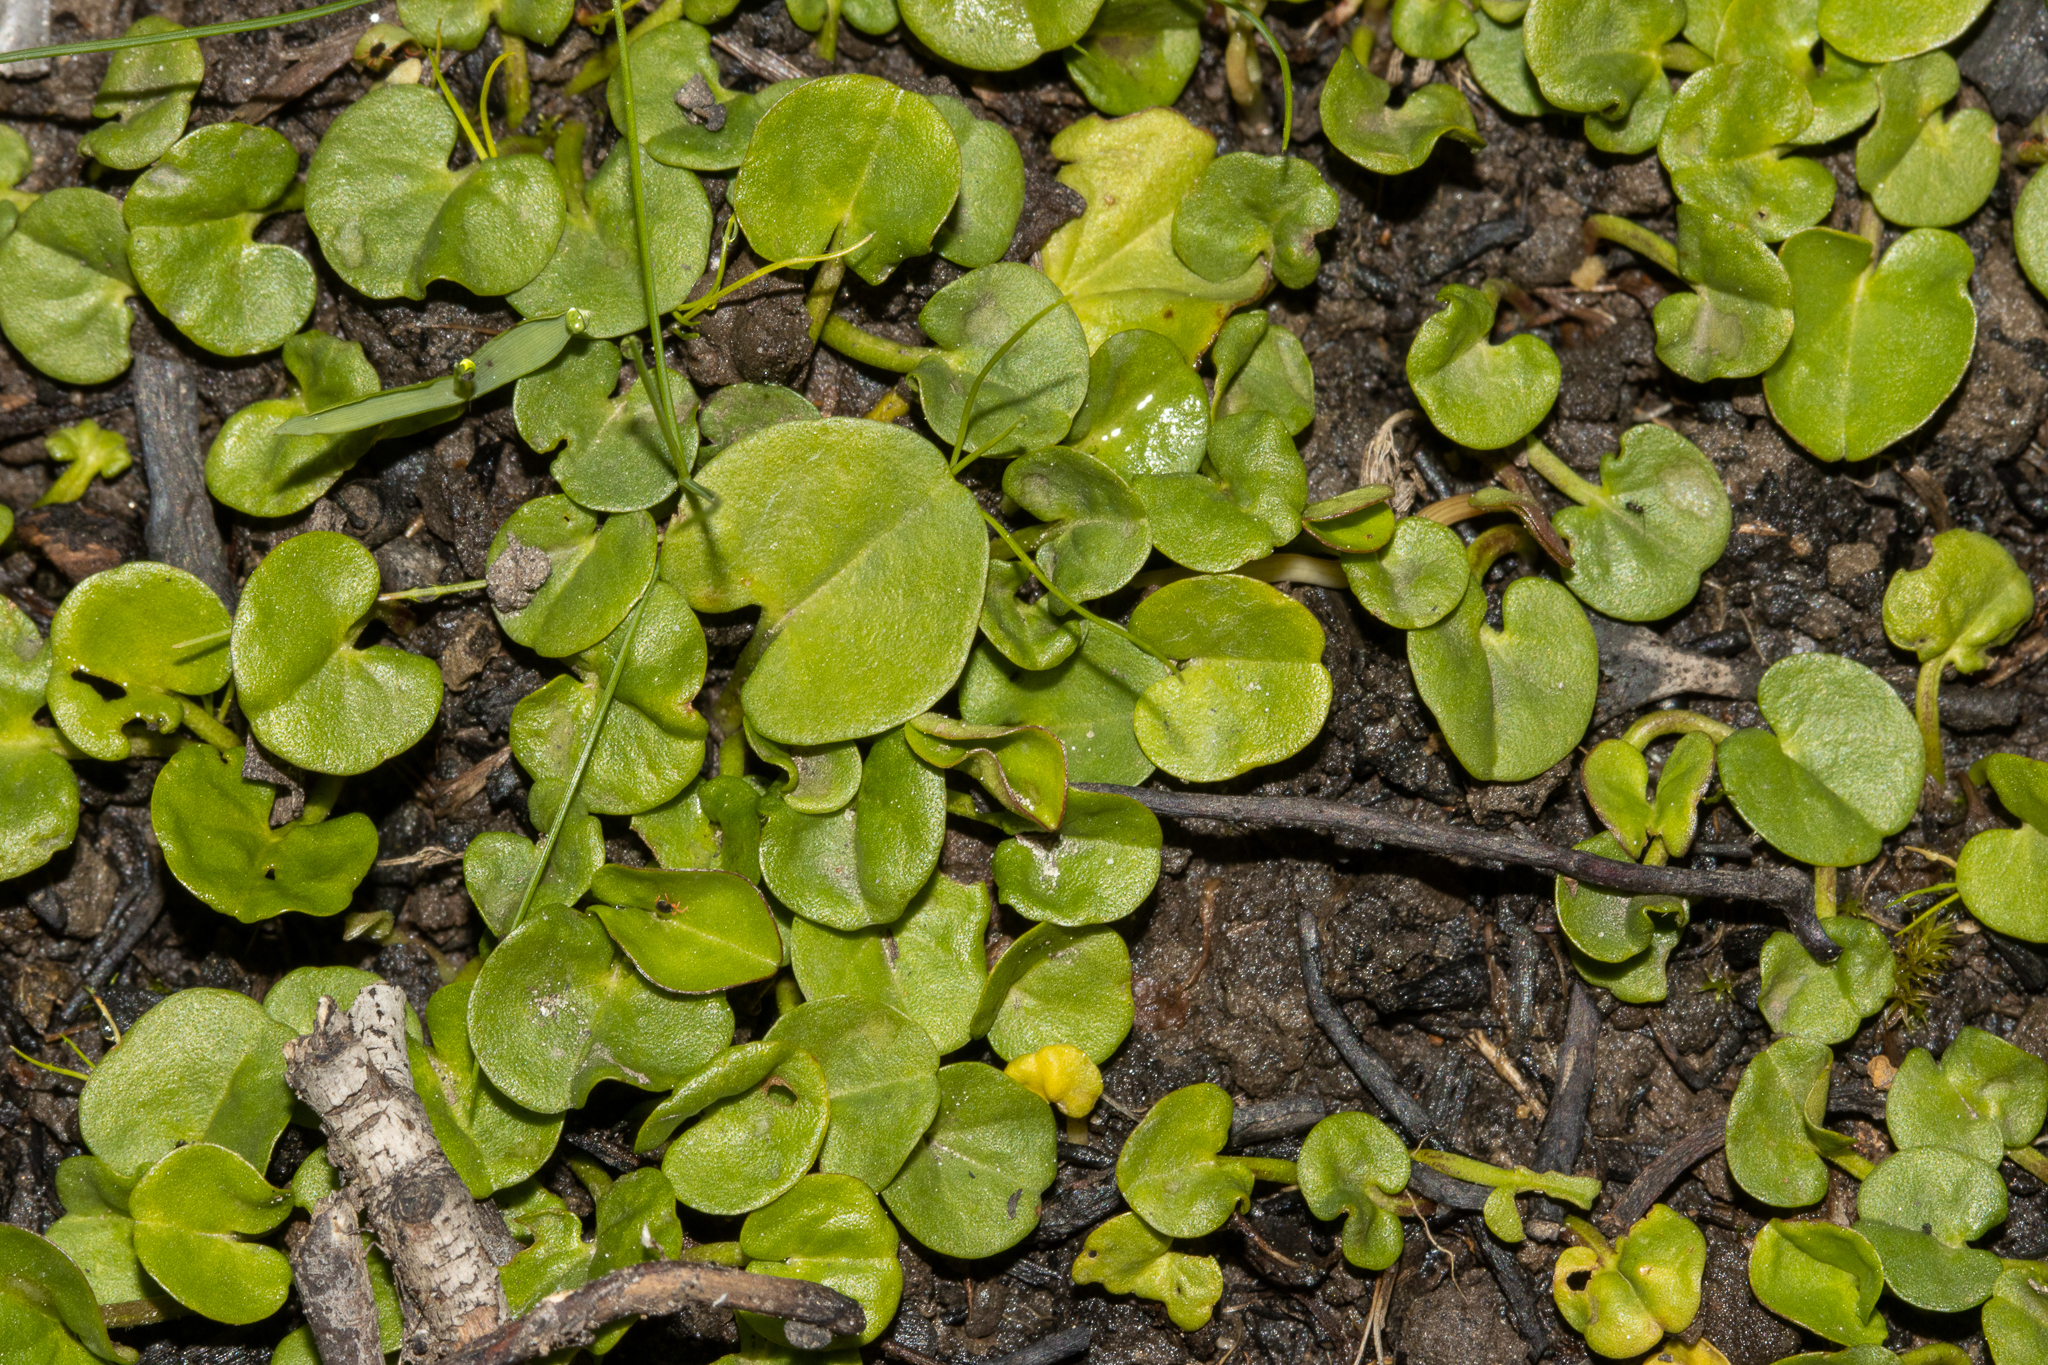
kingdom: Plantae
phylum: Tracheophyta
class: Magnoliopsida
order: Solanales
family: Convolvulaceae
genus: Dichondra
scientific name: Dichondra repens
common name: Kidneyweed
